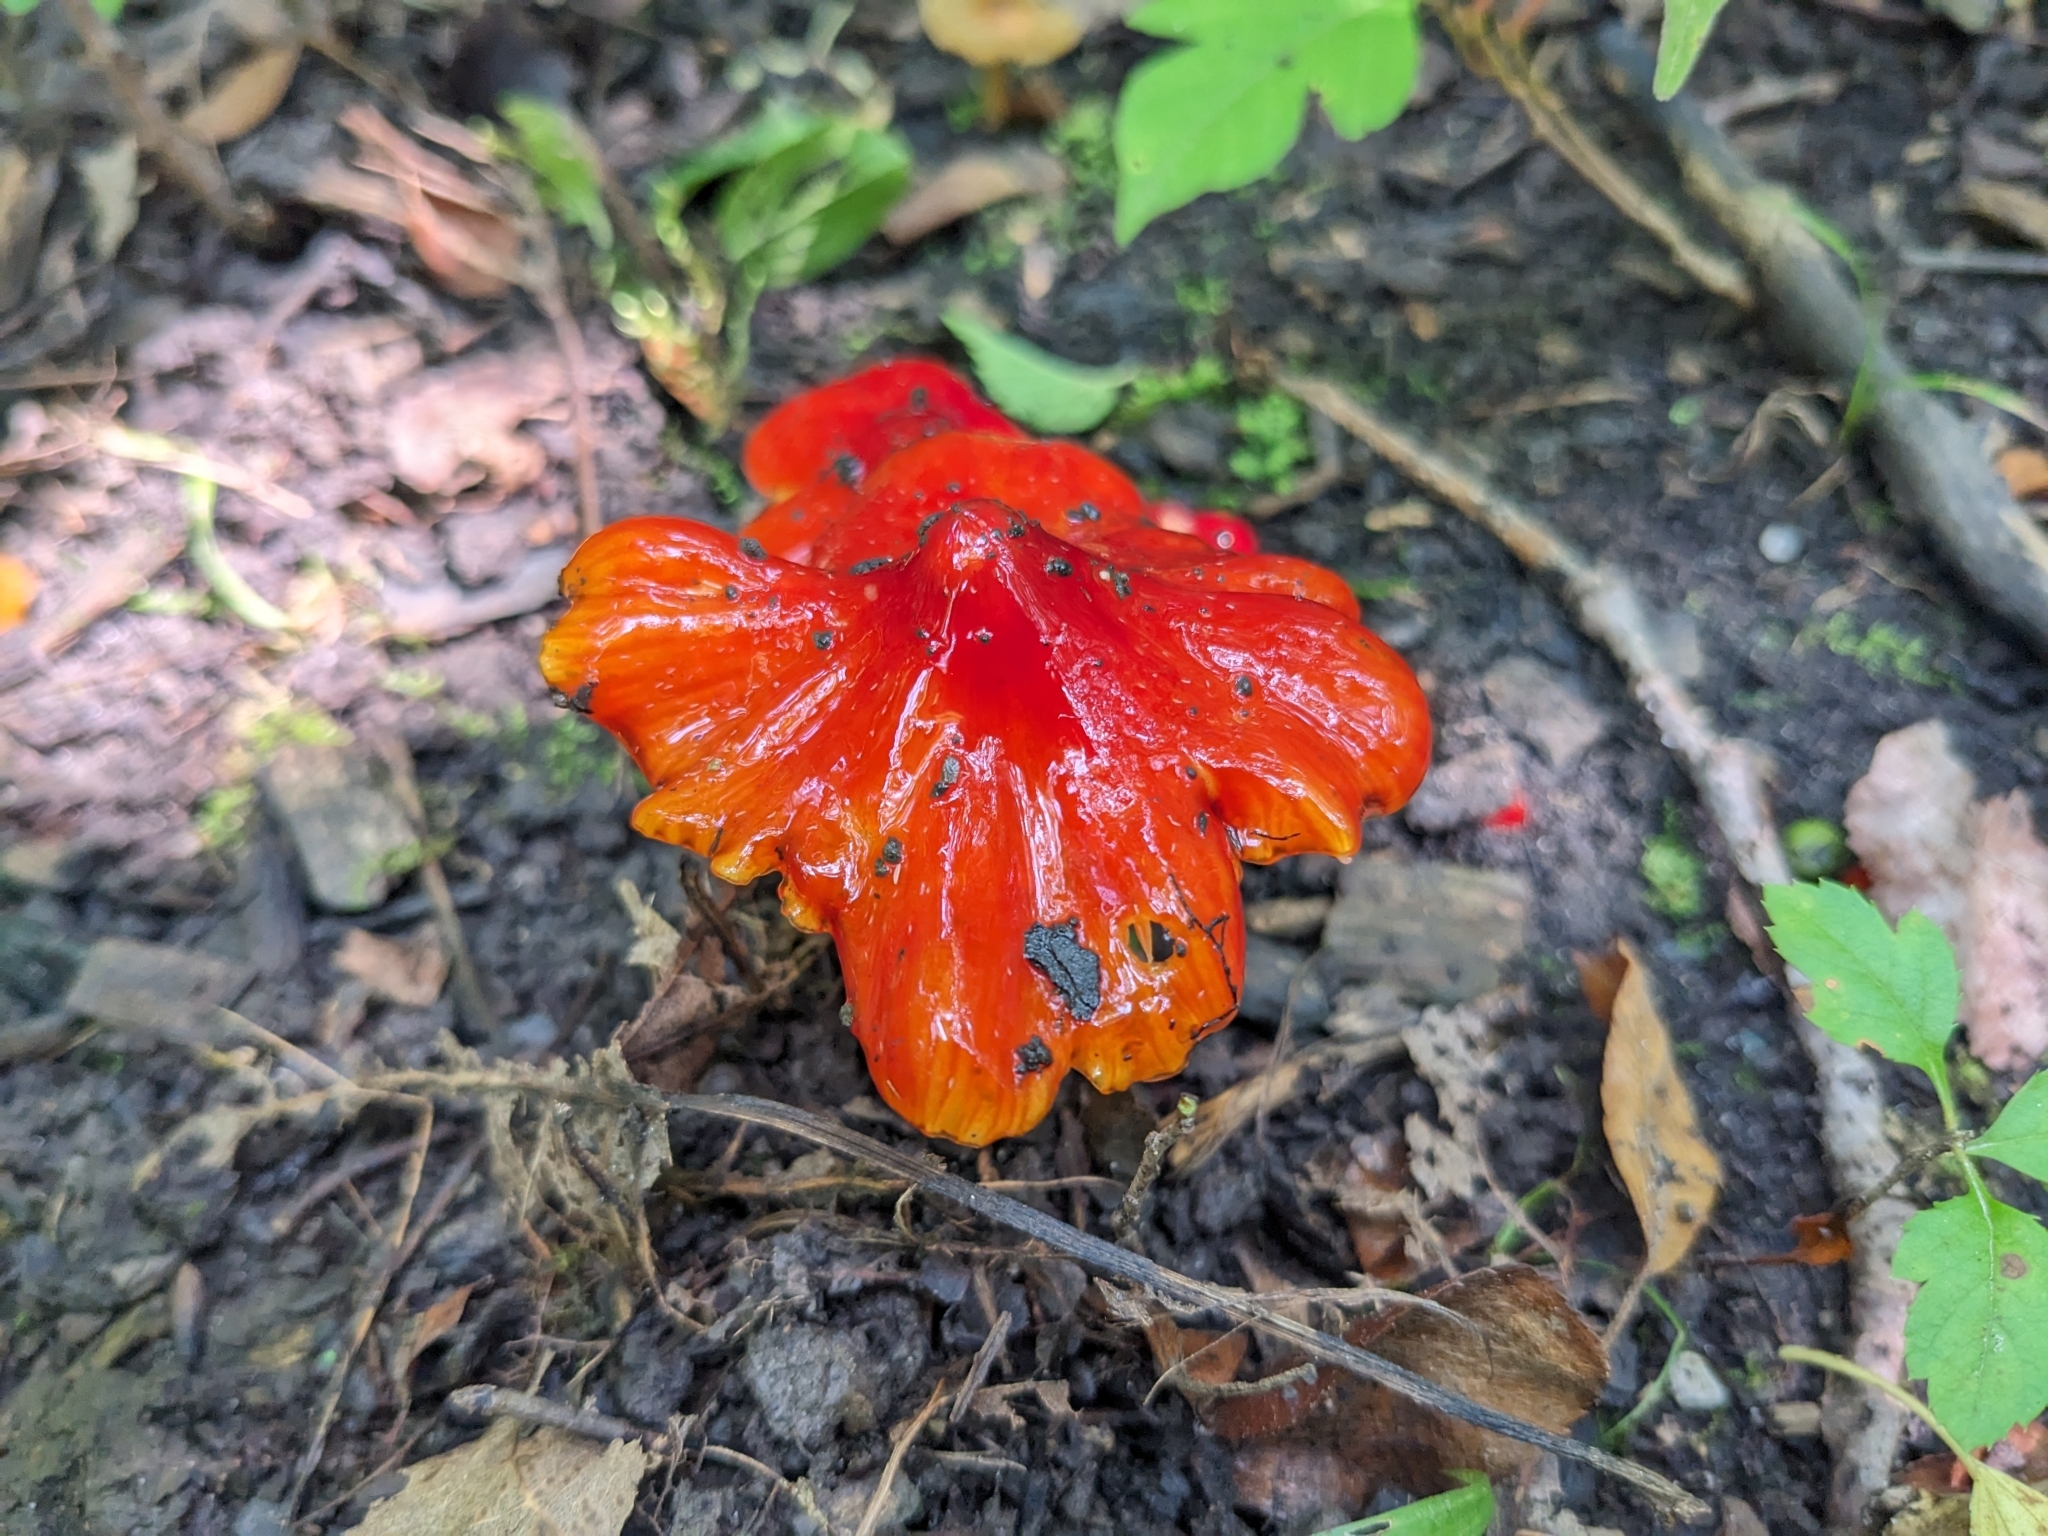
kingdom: Fungi
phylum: Basidiomycota
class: Agaricomycetes
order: Agaricales
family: Hygrophoraceae
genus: Hygrocybe
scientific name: Hygrocybe cuspidata
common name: Candy apple waxy cap
